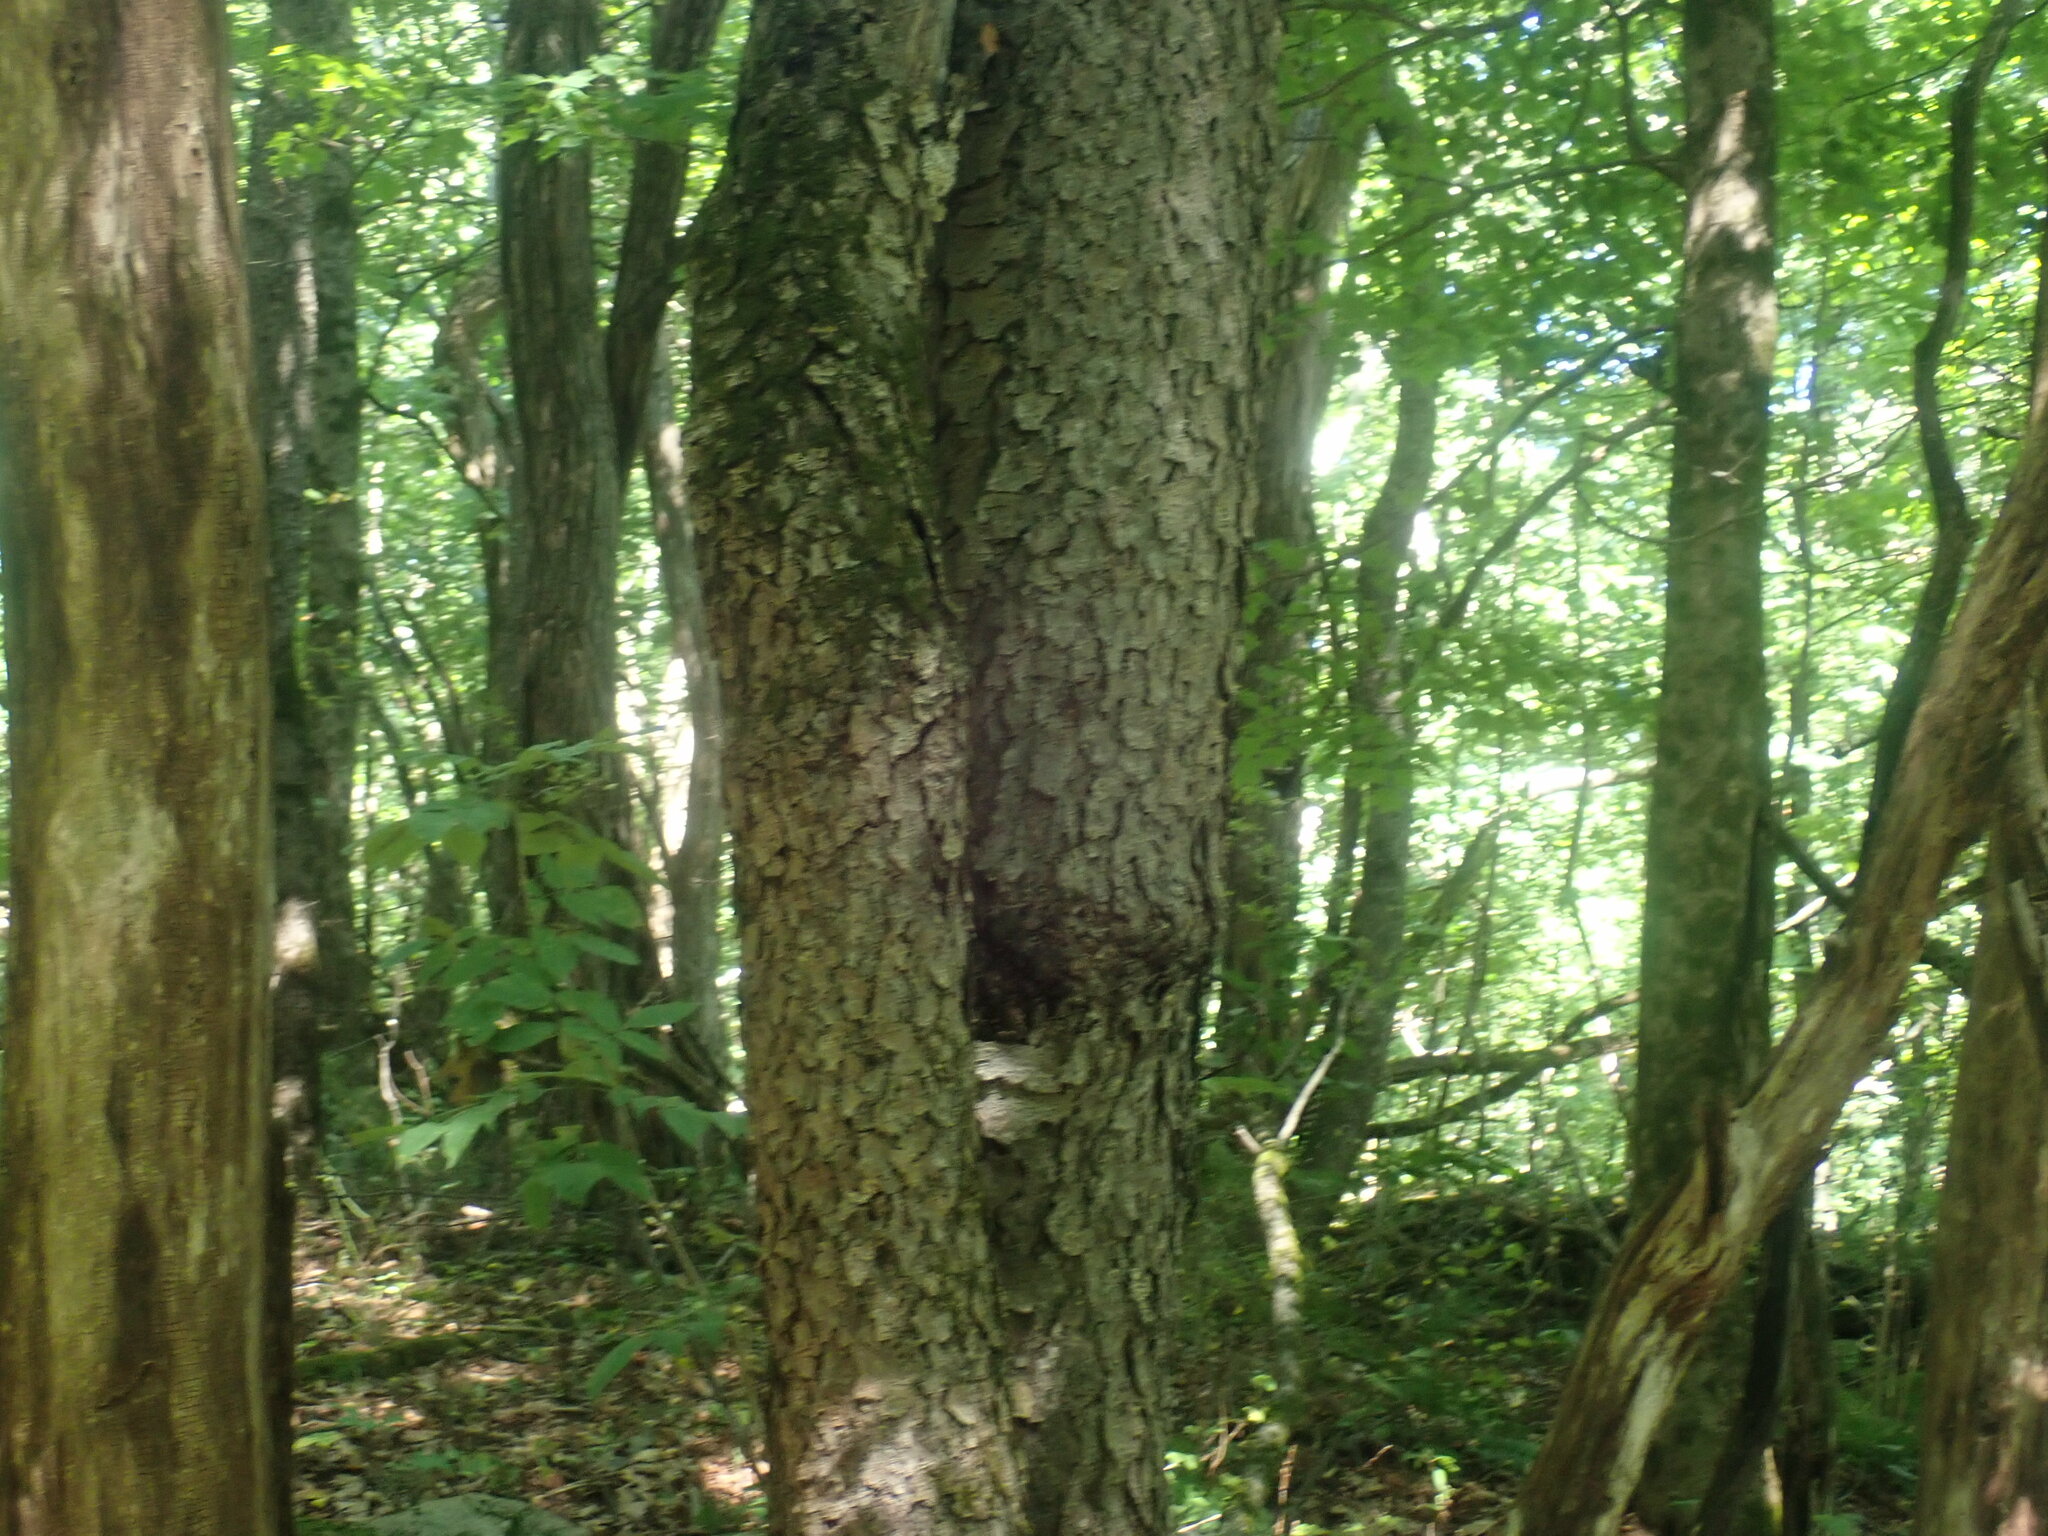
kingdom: Plantae
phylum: Tracheophyta
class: Magnoliopsida
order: Rosales
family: Rosaceae
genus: Prunus
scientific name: Prunus serotina
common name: Black cherry
